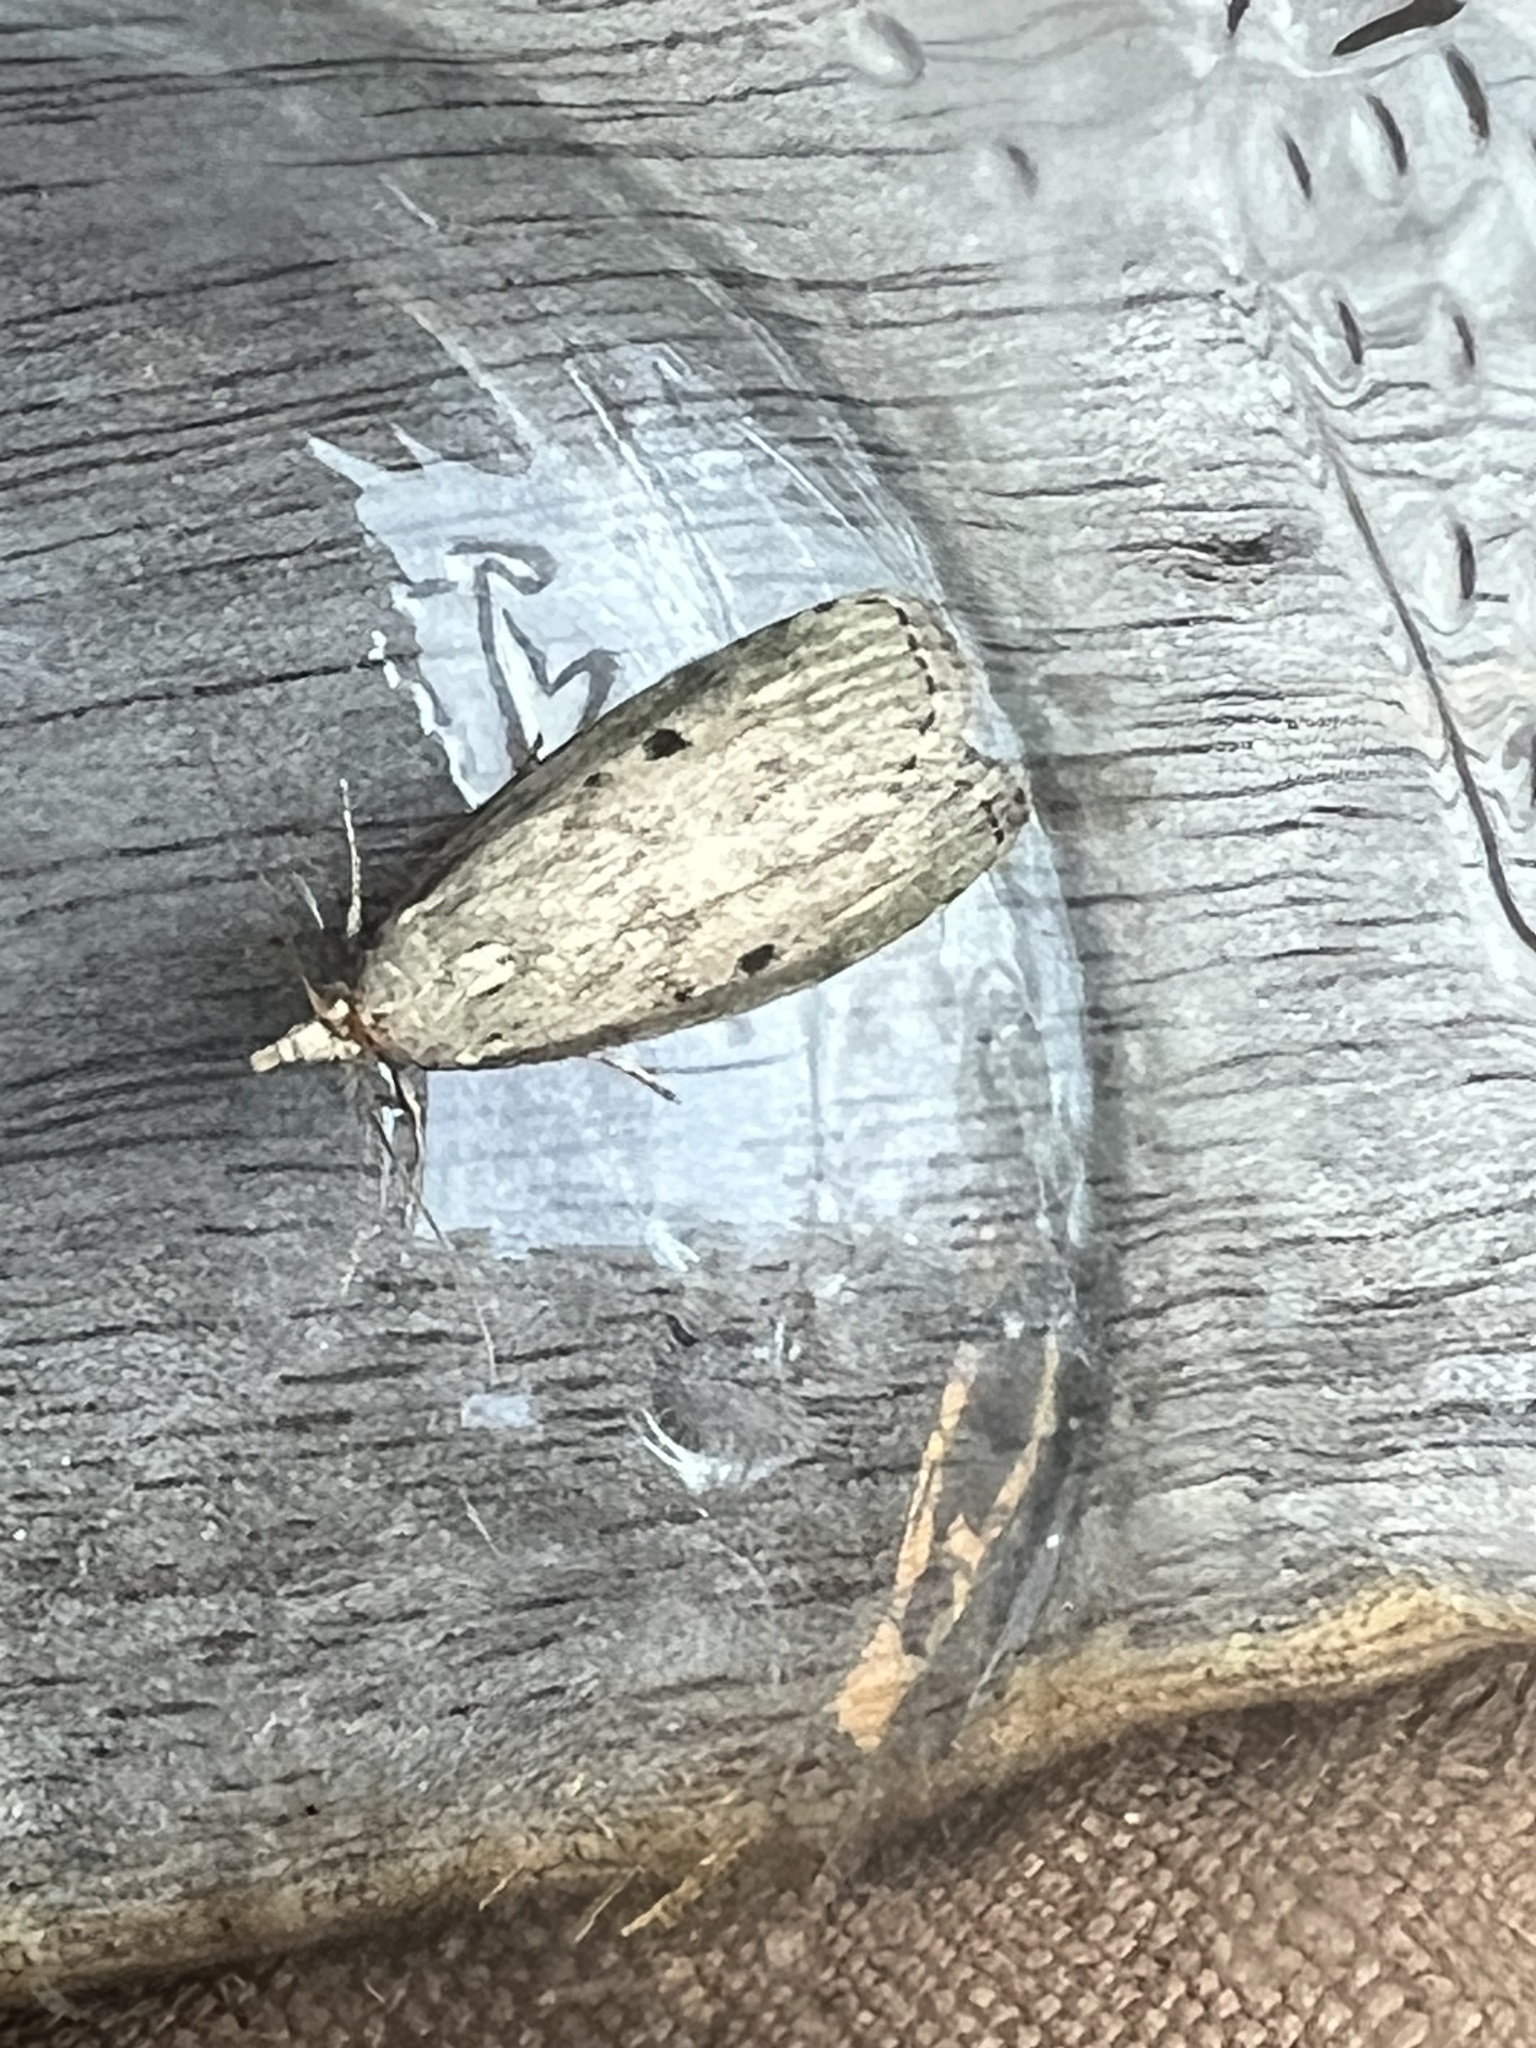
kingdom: Animalia
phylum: Arthropoda
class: Insecta
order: Lepidoptera
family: Pyralidae
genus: Aphomia
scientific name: Aphomia sociella
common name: Bee moth
